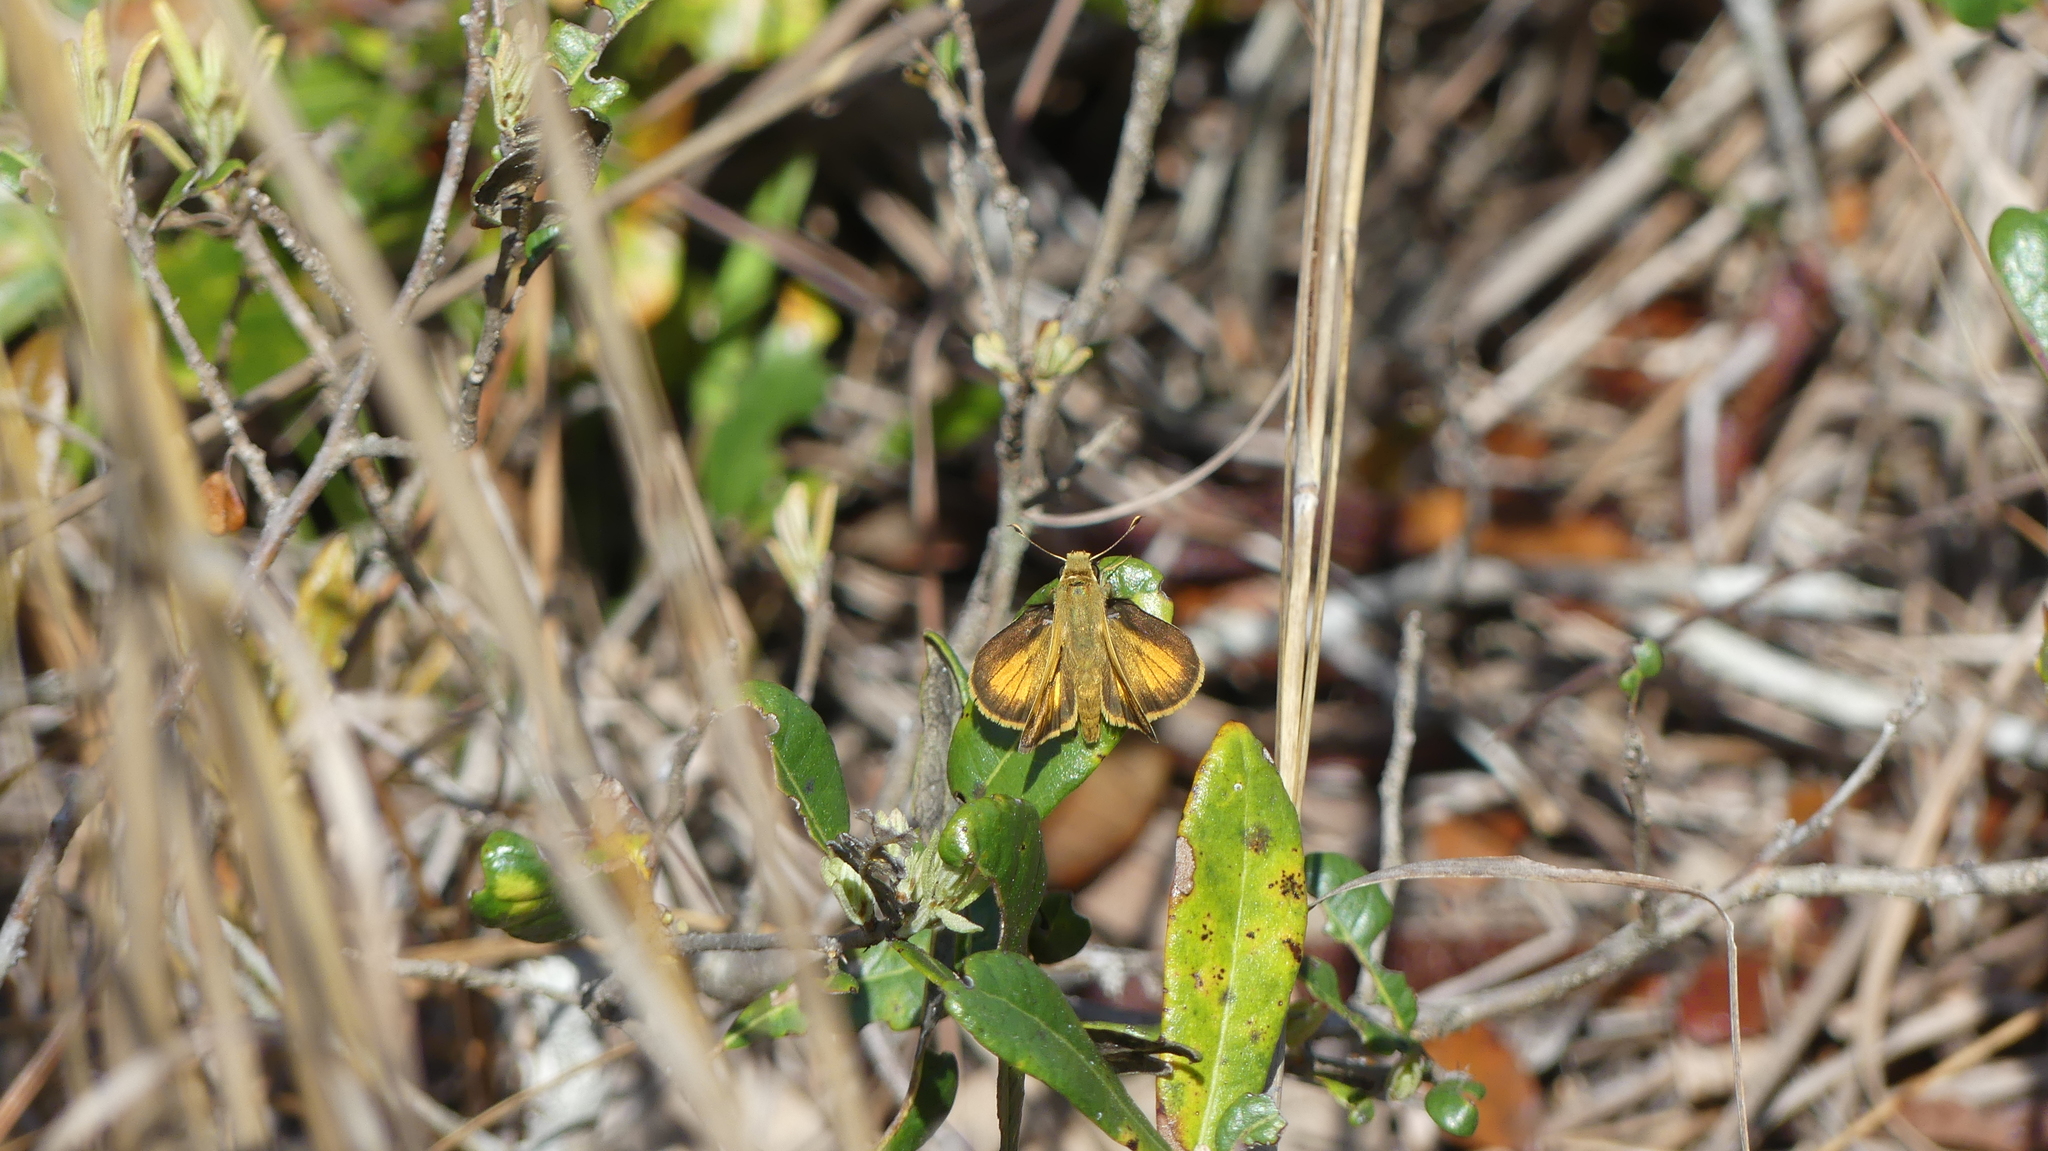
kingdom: Animalia
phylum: Arthropoda
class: Insecta
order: Lepidoptera
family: Hesperiidae
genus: Polites
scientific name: Polites vibex
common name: Whirlabout
